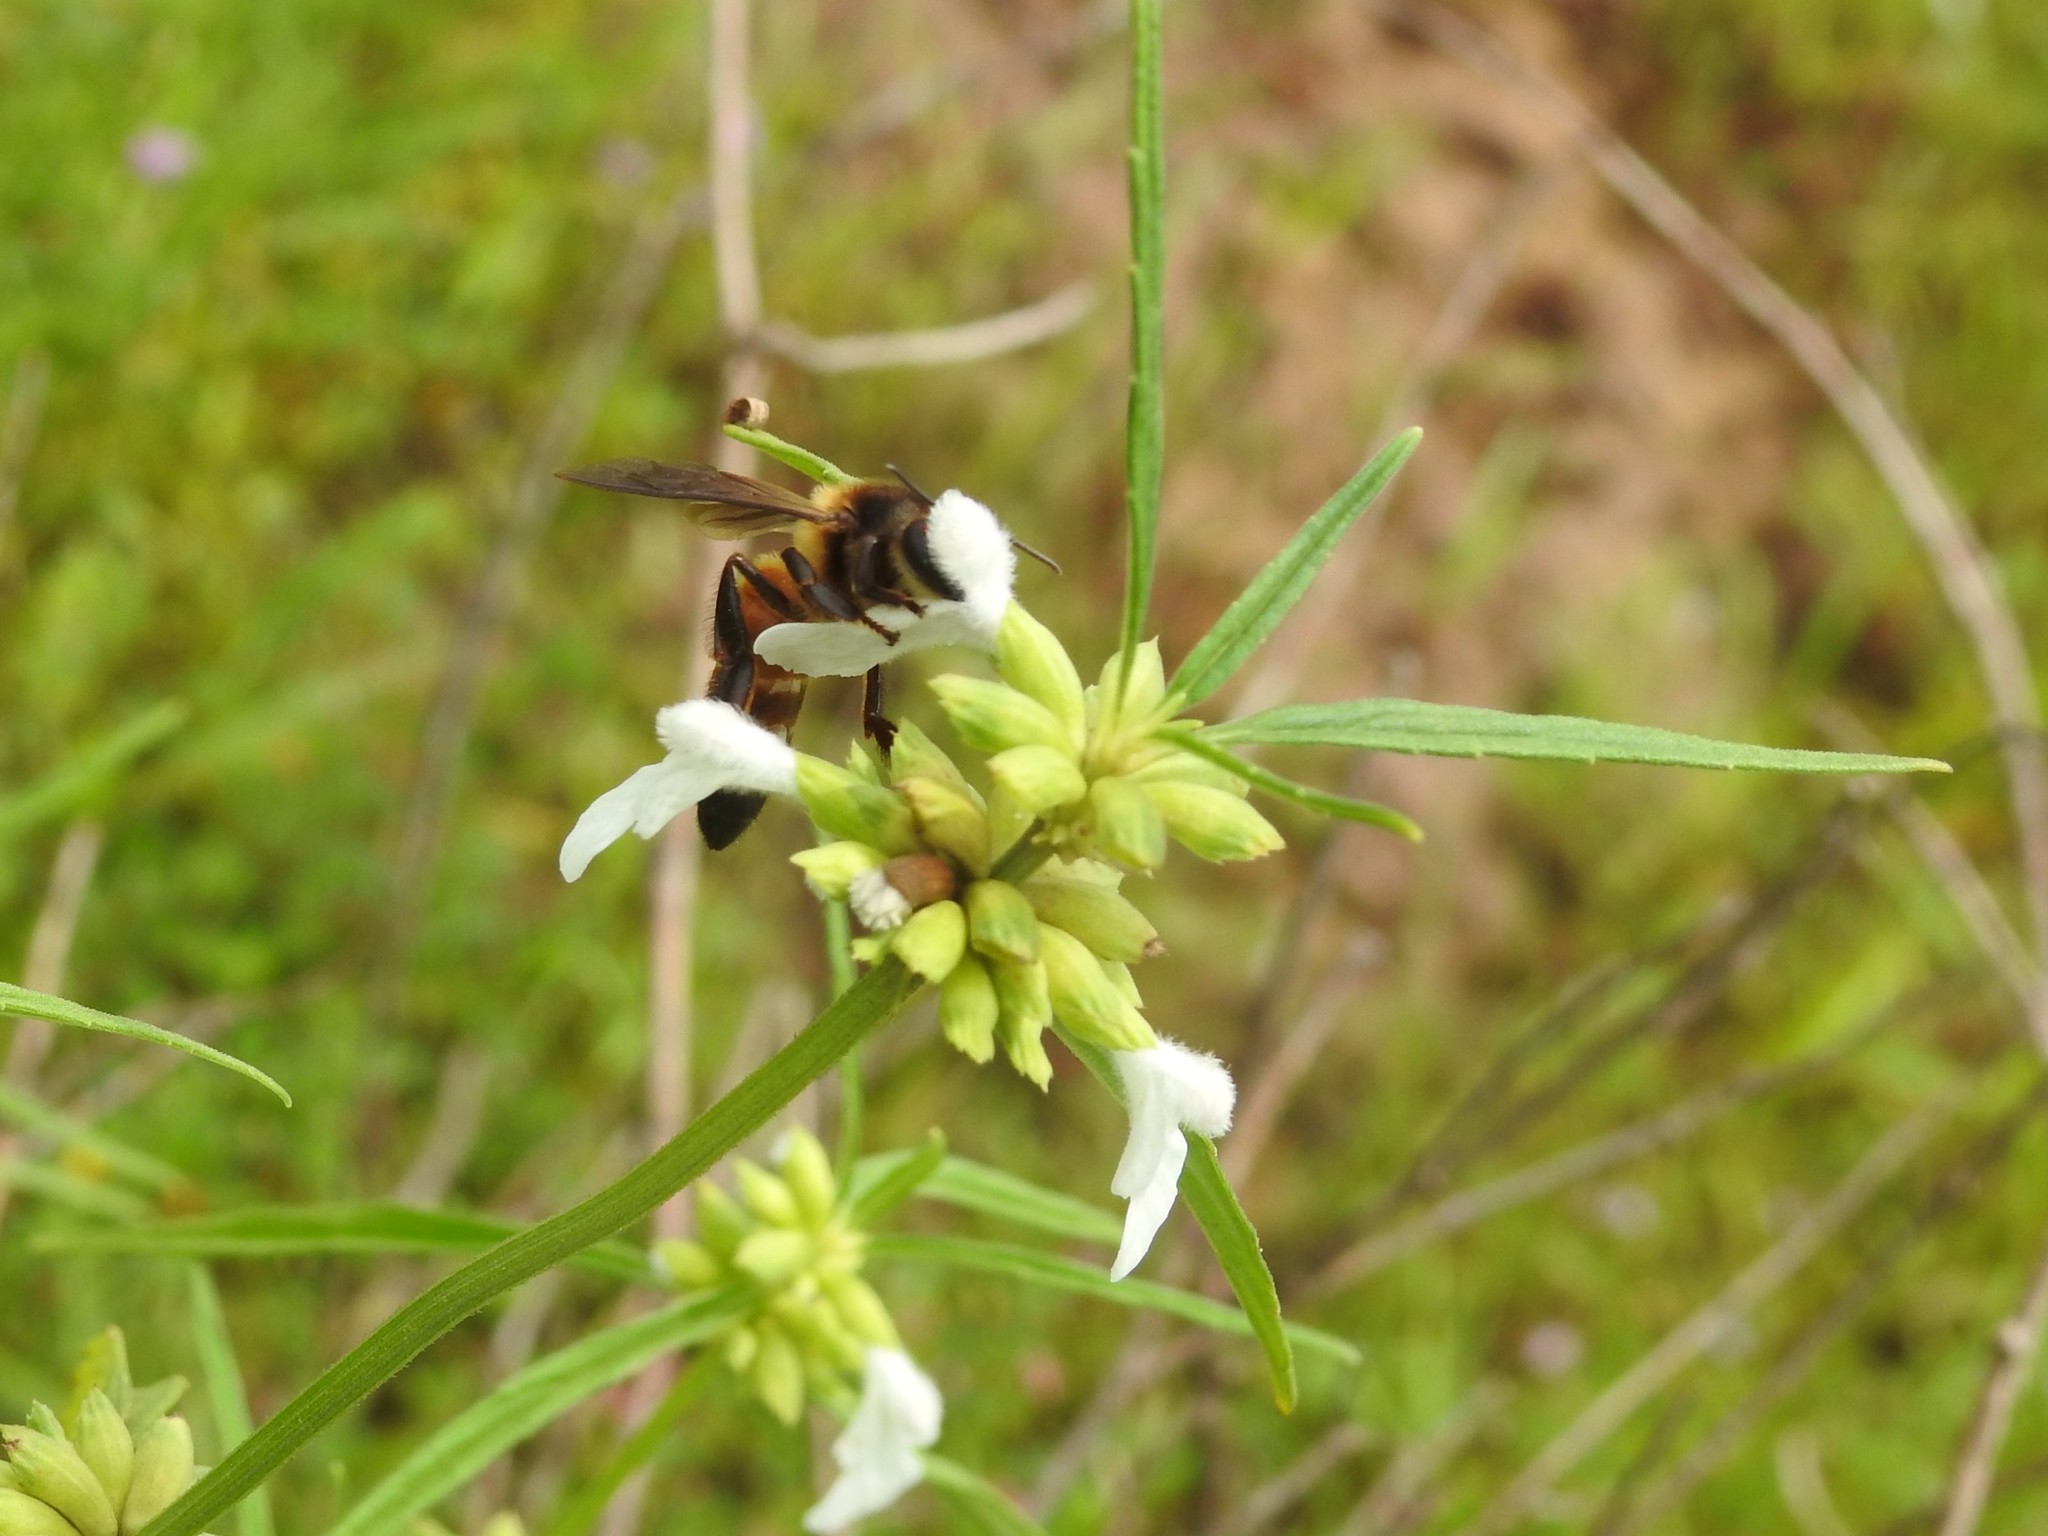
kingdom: Animalia
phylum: Arthropoda
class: Insecta
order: Hymenoptera
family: Apidae
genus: Apis
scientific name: Apis dorsata
